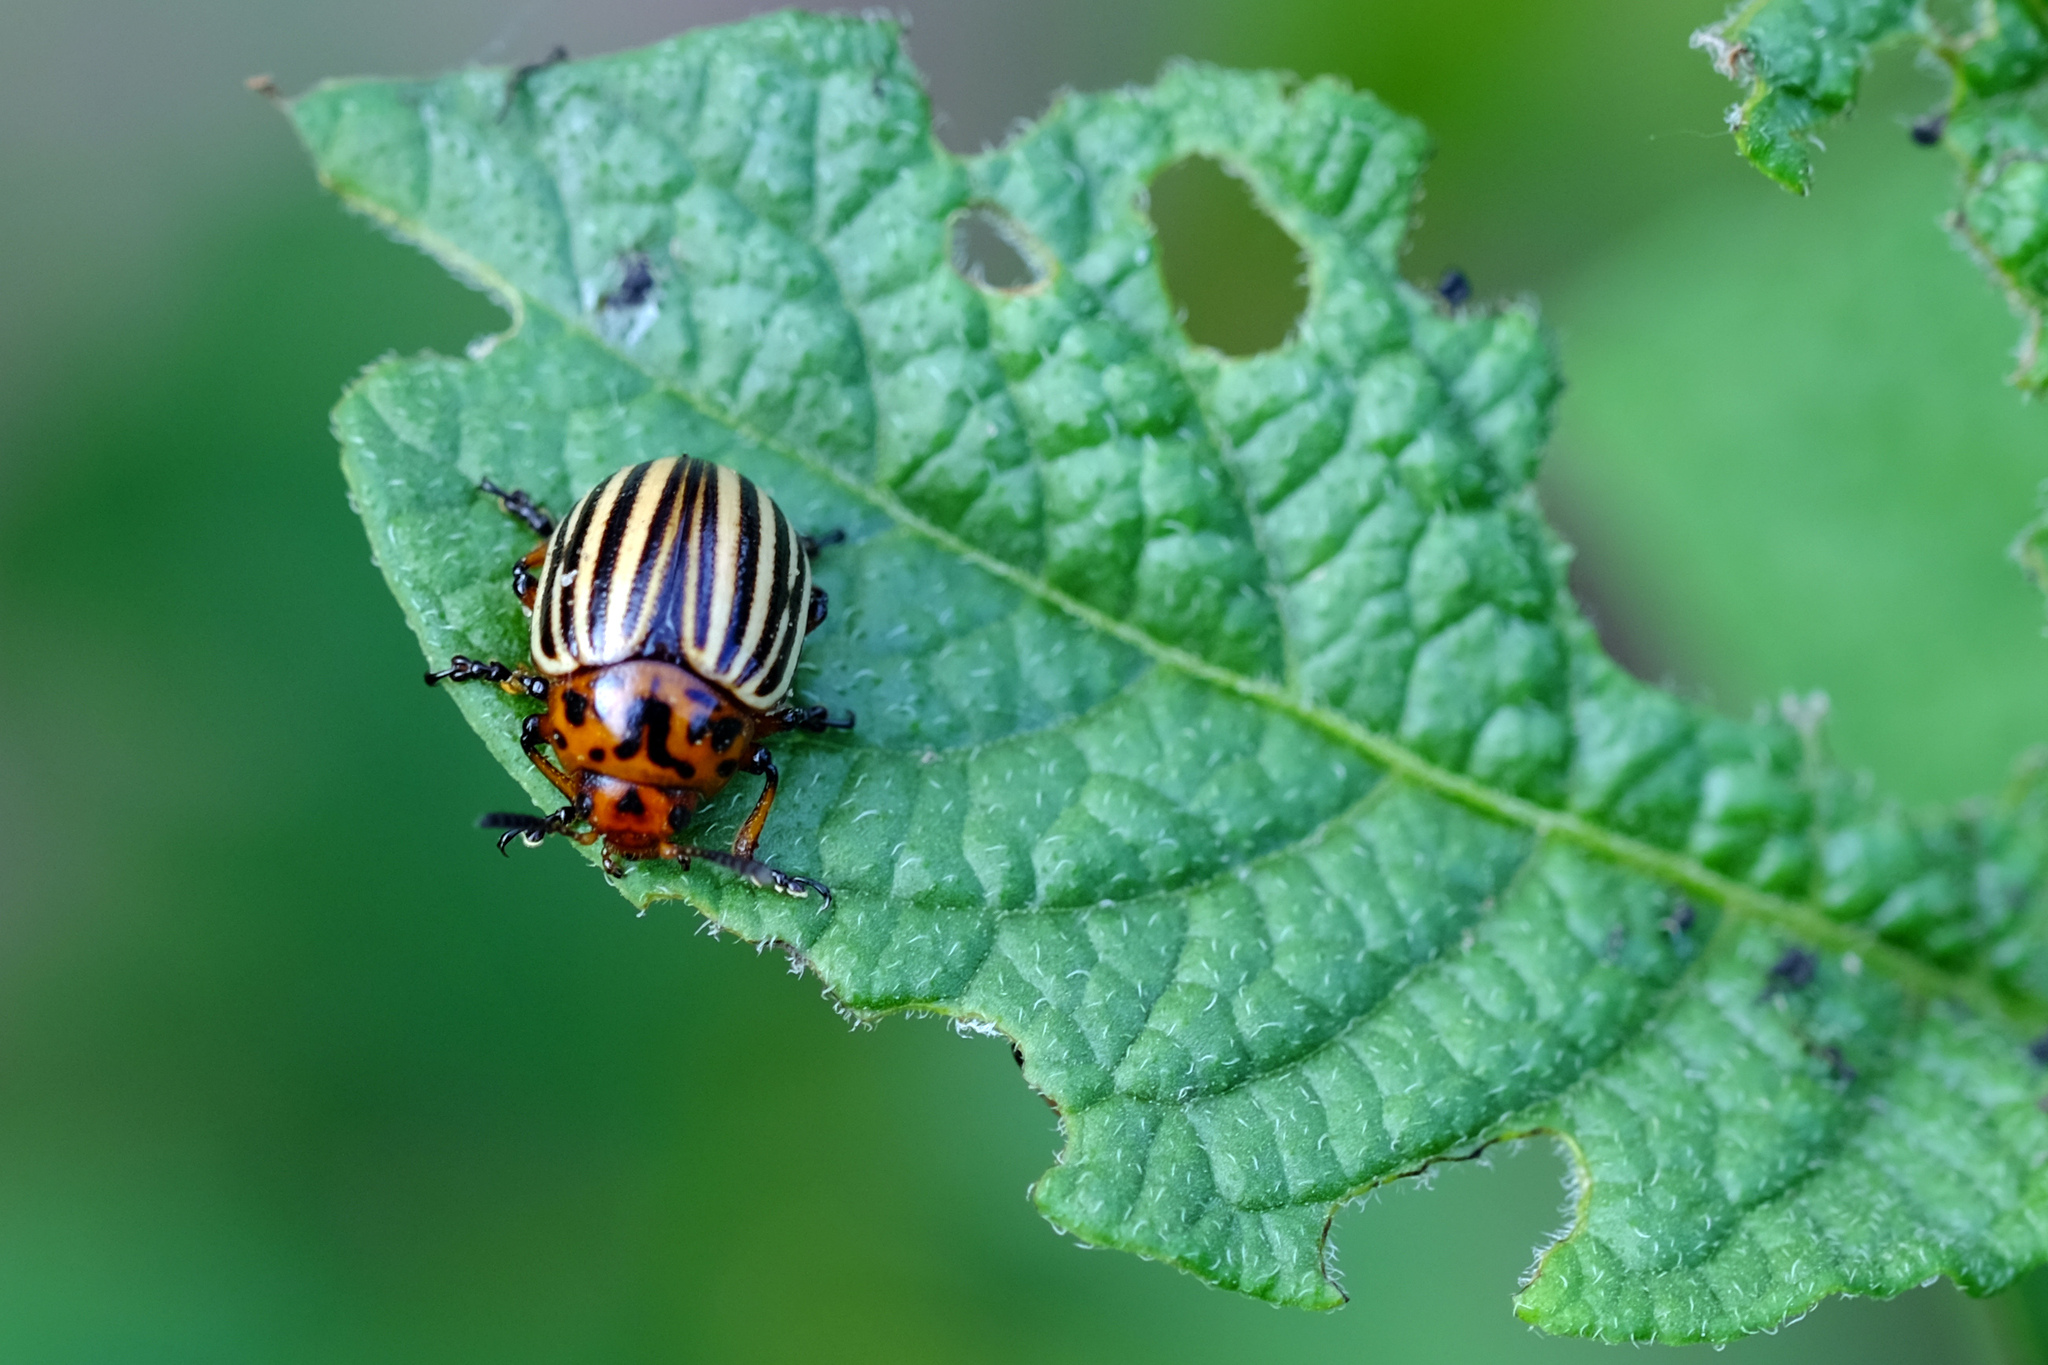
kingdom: Animalia
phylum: Arthropoda
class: Insecta
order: Coleoptera
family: Chrysomelidae
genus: Leptinotarsa
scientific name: Leptinotarsa decemlineata
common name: Colorado potato beetle
